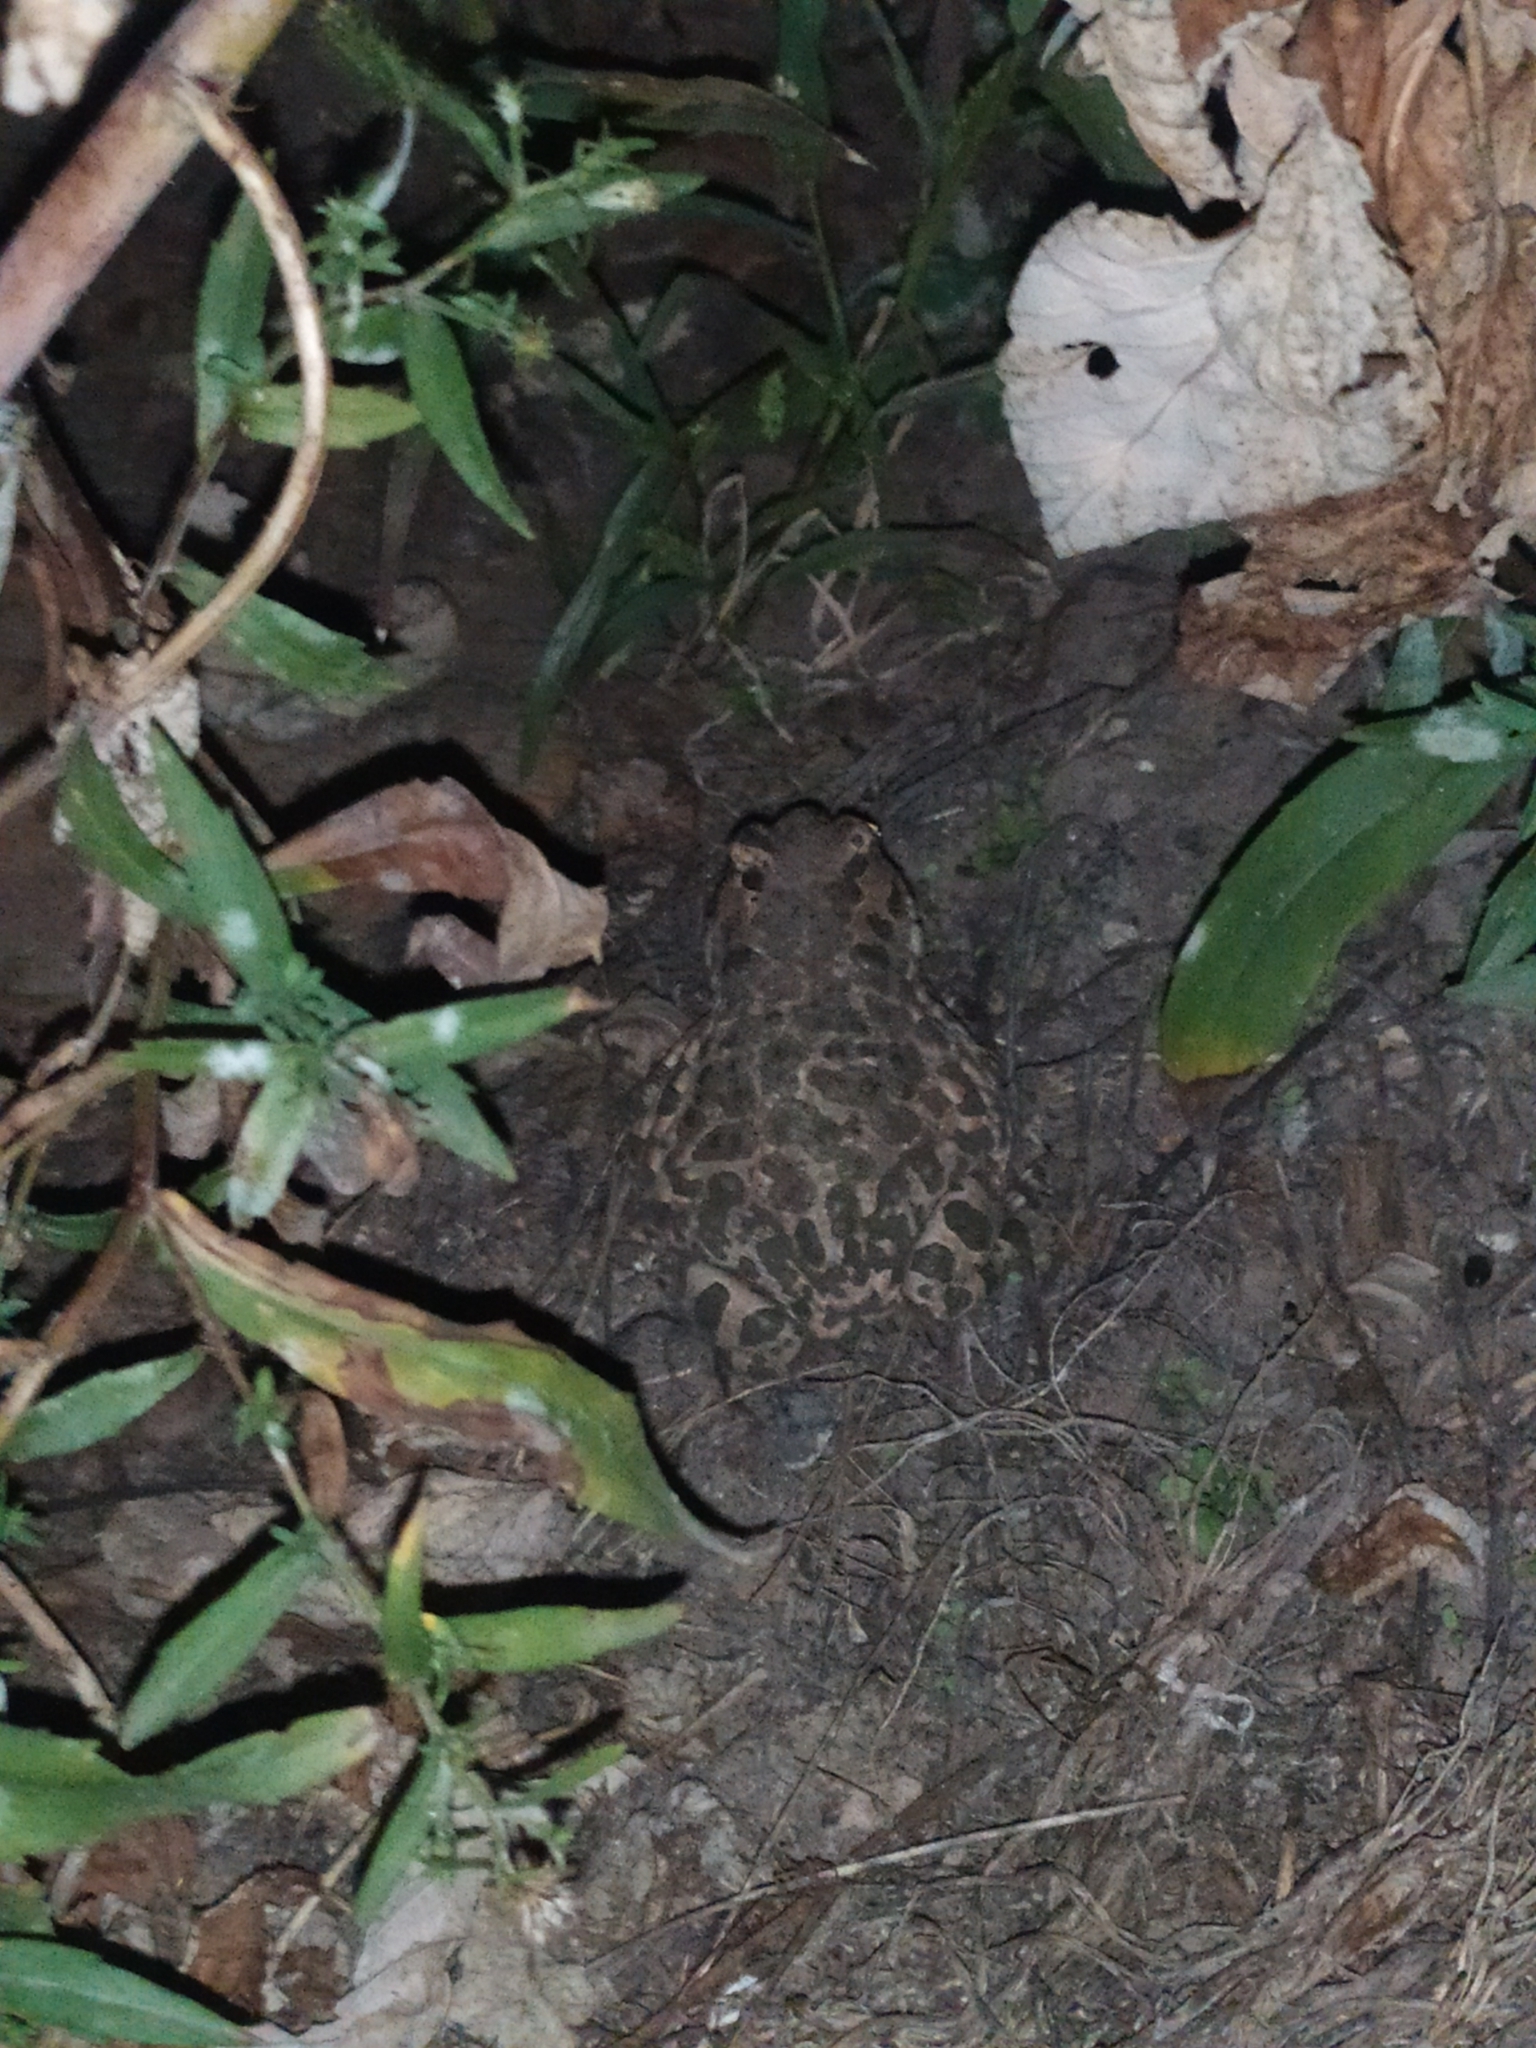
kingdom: Animalia
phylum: Chordata
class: Amphibia
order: Anura
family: Bufonidae
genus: Bufotes
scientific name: Bufotes viridis
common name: European green toad
